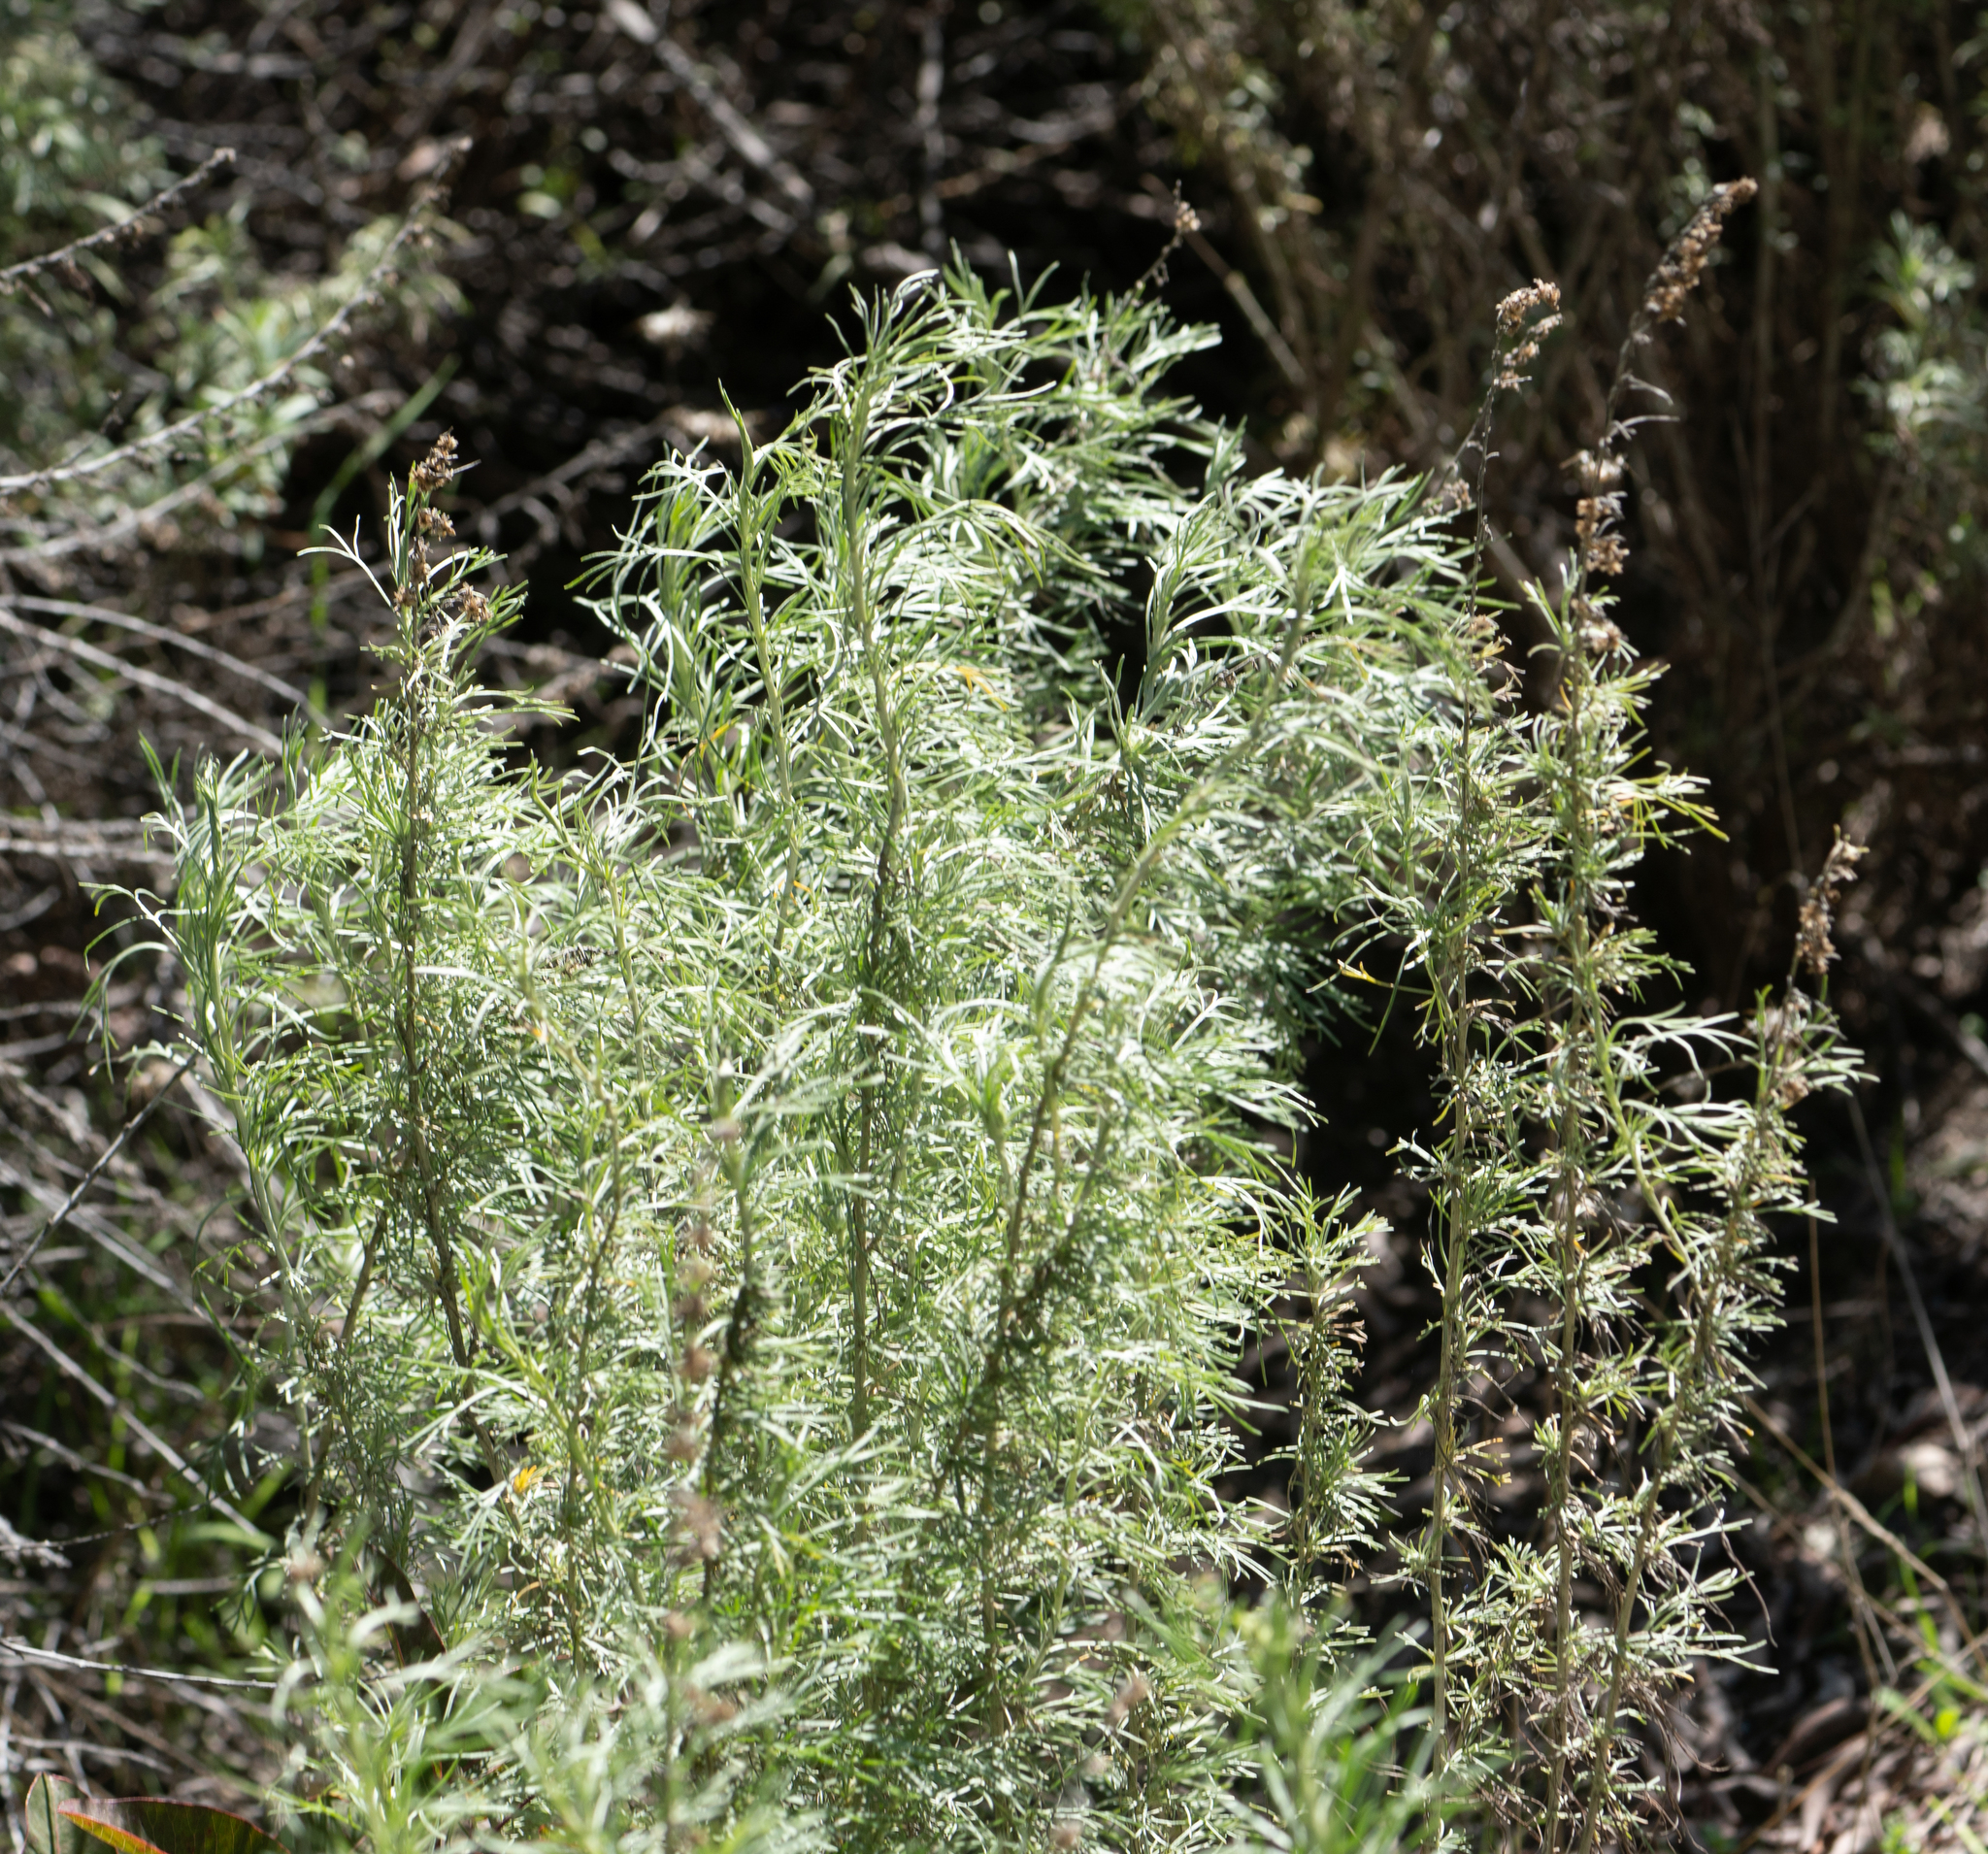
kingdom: Plantae
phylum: Tracheophyta
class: Magnoliopsida
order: Asterales
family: Asteraceae
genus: Artemisia
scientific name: Artemisia californica
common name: California sagebrush
